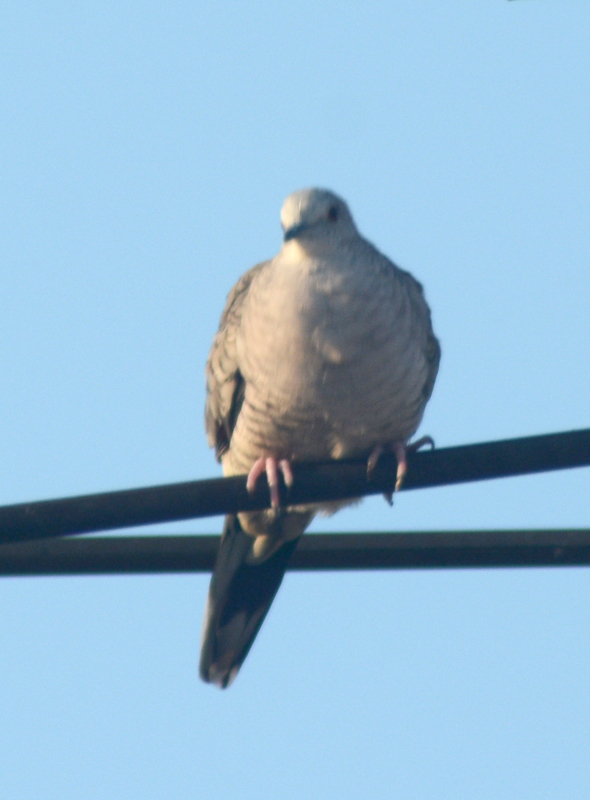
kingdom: Animalia
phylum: Chordata
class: Aves
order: Columbiformes
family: Columbidae
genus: Columbina
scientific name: Columbina inca
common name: Inca dove
